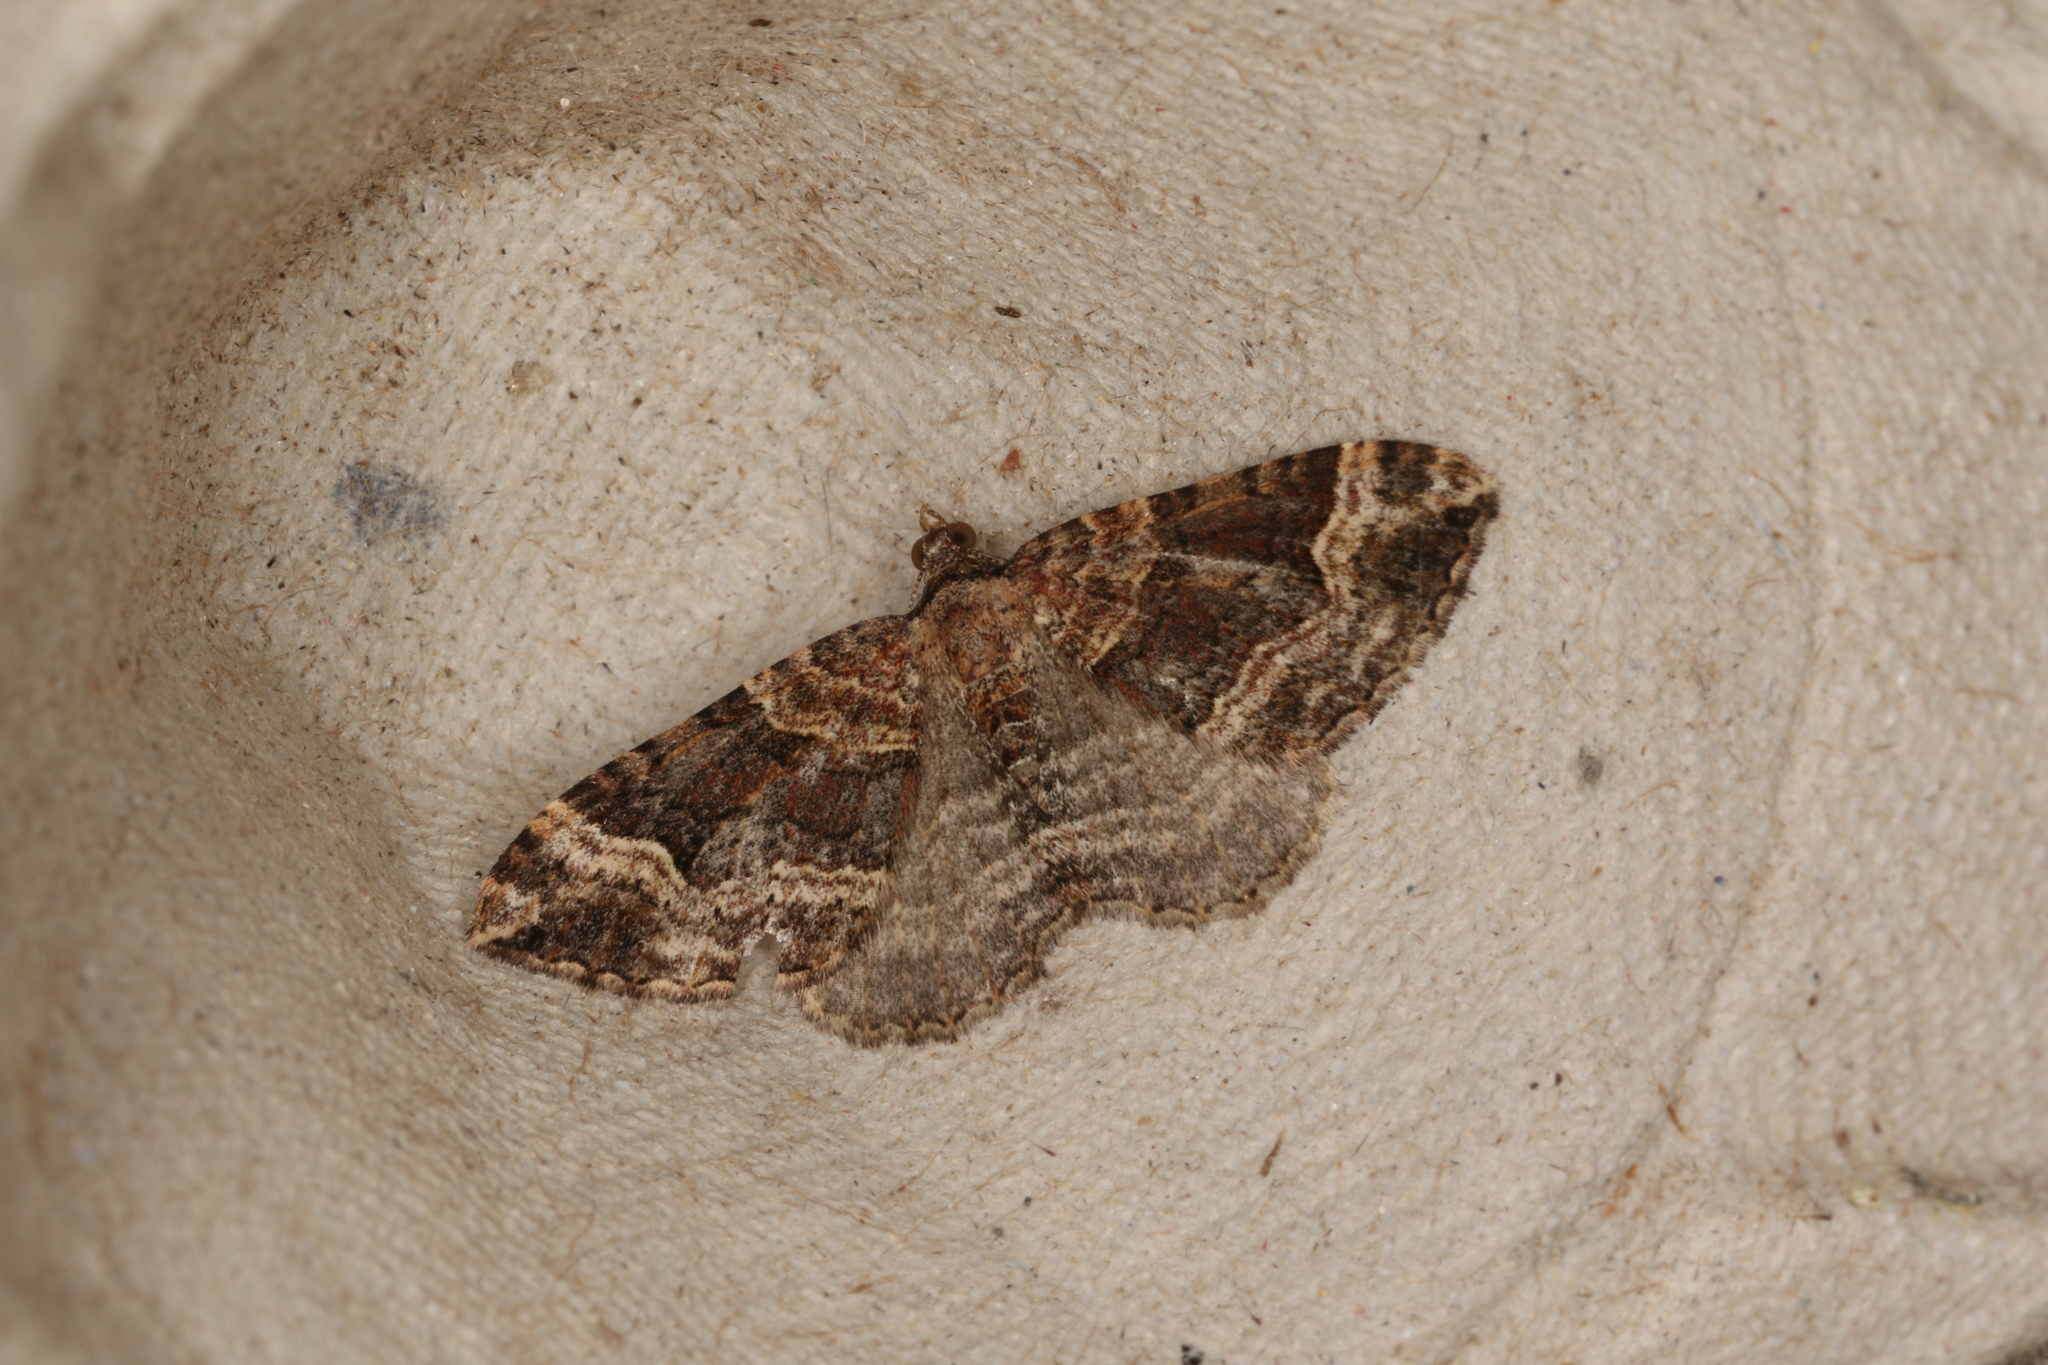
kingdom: Animalia
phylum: Arthropoda
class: Insecta
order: Lepidoptera
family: Geometridae
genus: Epyaxa
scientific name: Epyaxa sodaliata
